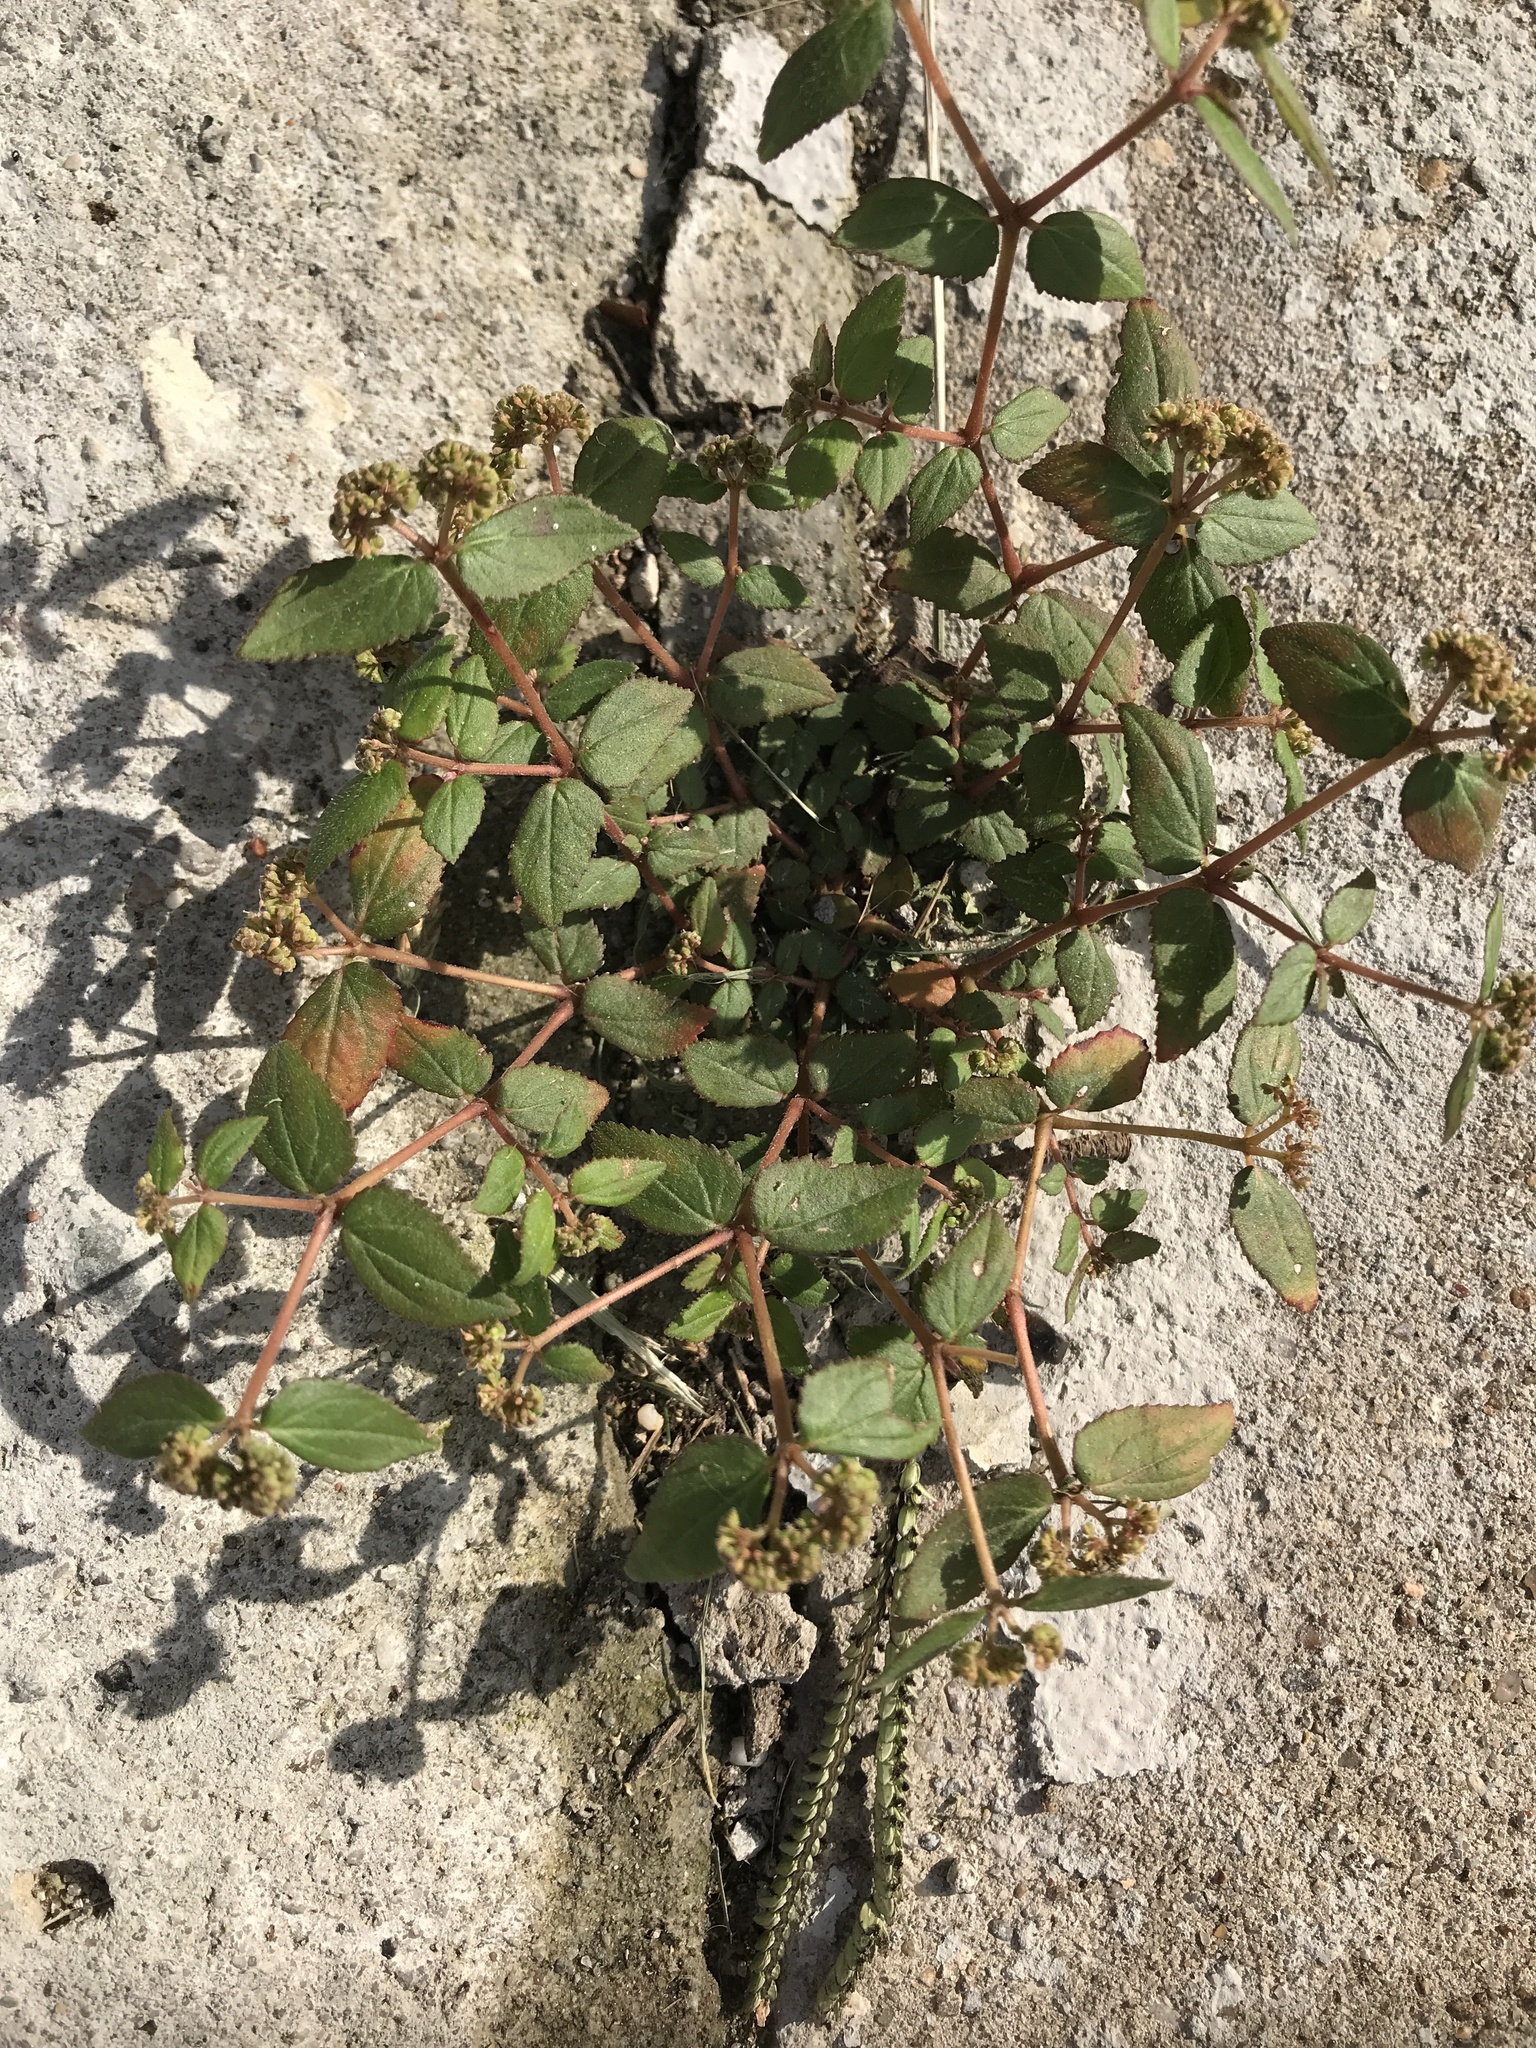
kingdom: Plantae
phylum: Tracheophyta
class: Magnoliopsida
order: Malpighiales
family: Euphorbiaceae
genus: Euphorbia
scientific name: Euphorbia ophthalmica
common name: Florida hammock sandmat
